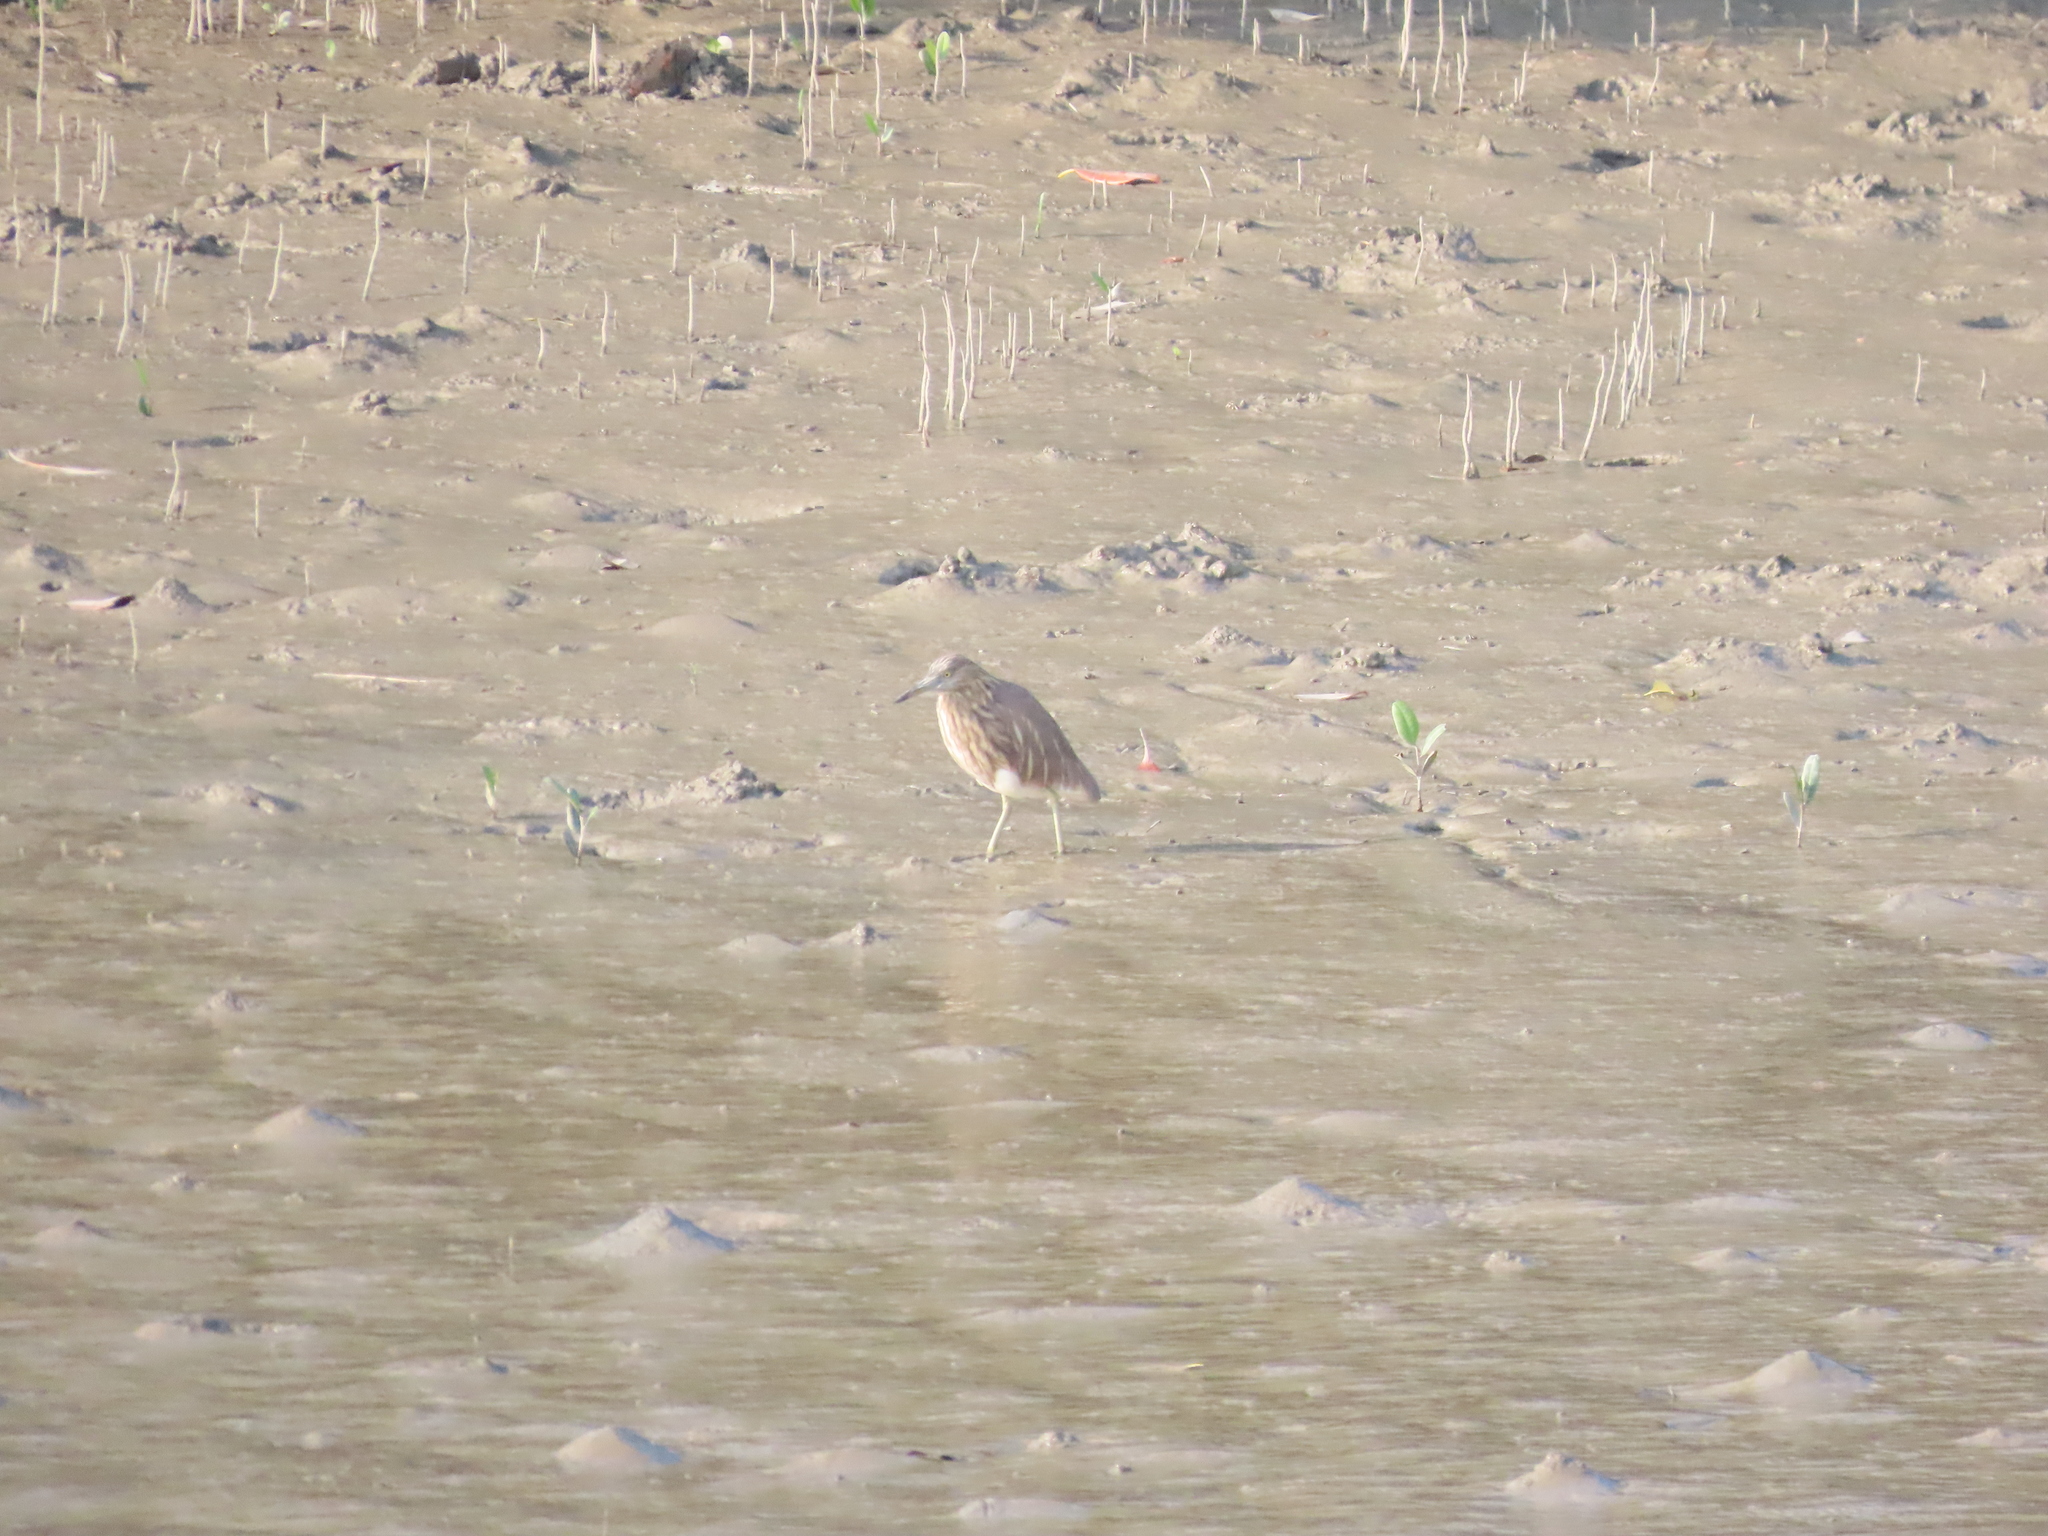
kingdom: Animalia
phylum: Chordata
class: Aves
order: Pelecaniformes
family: Ardeidae
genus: Ardeola
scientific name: Ardeola grayii
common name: Indian pond heron
